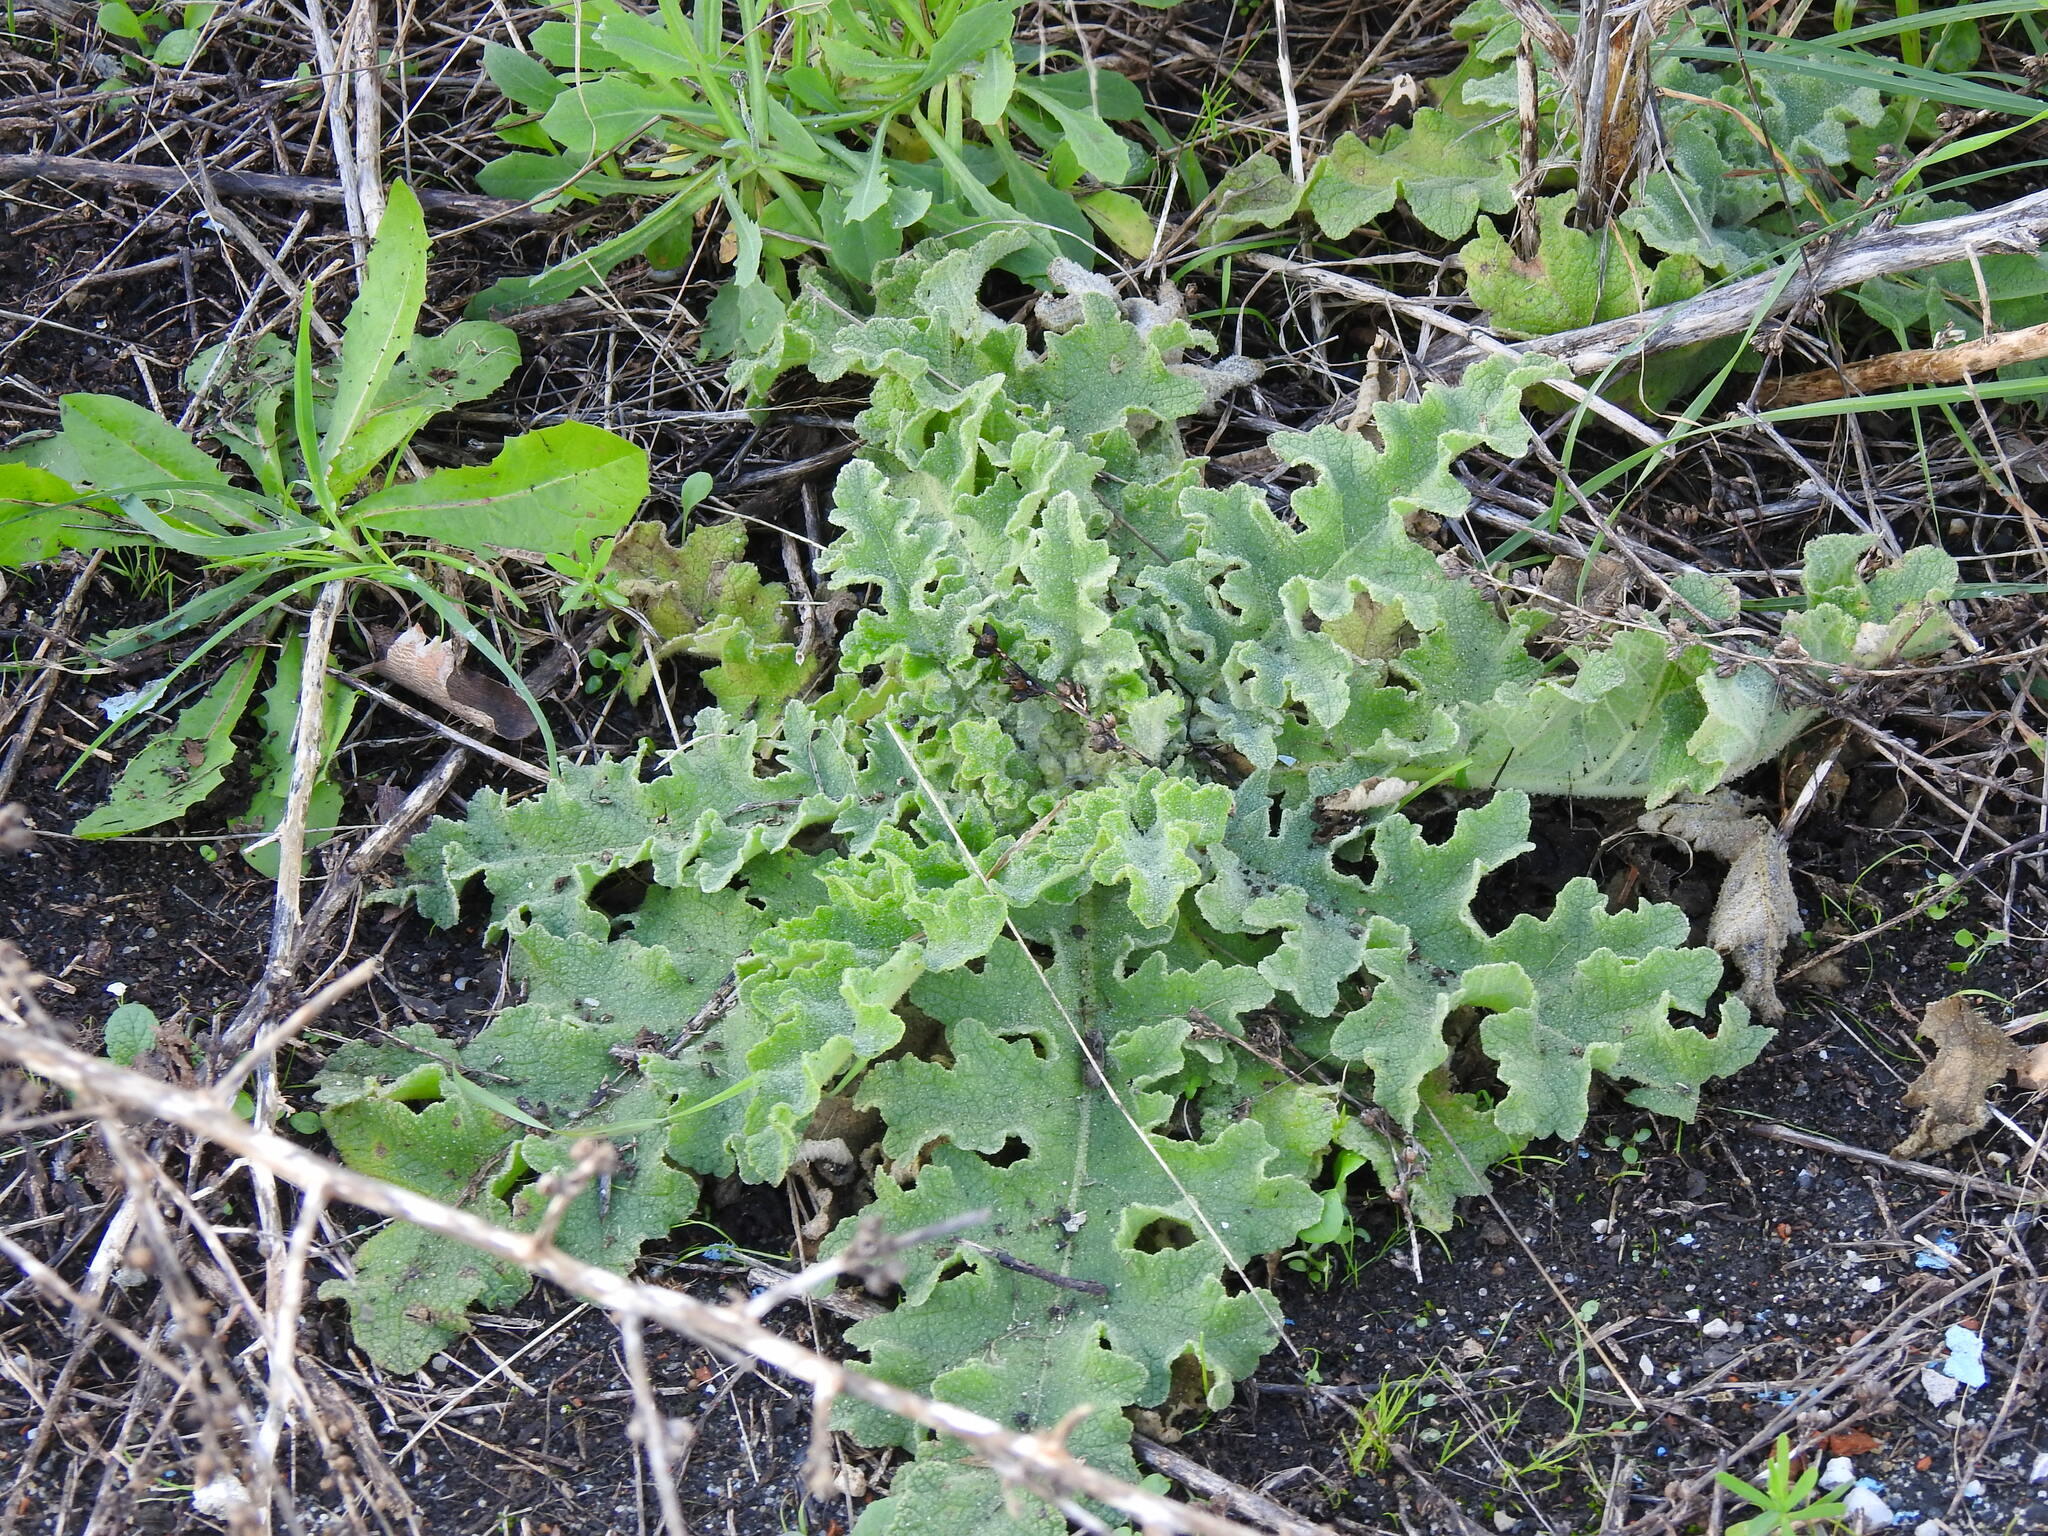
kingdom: Plantae
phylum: Tracheophyta
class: Magnoliopsida
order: Lamiales
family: Scrophulariaceae
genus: Verbascum
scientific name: Verbascum sinuatum
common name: Wavyleaf mullein
